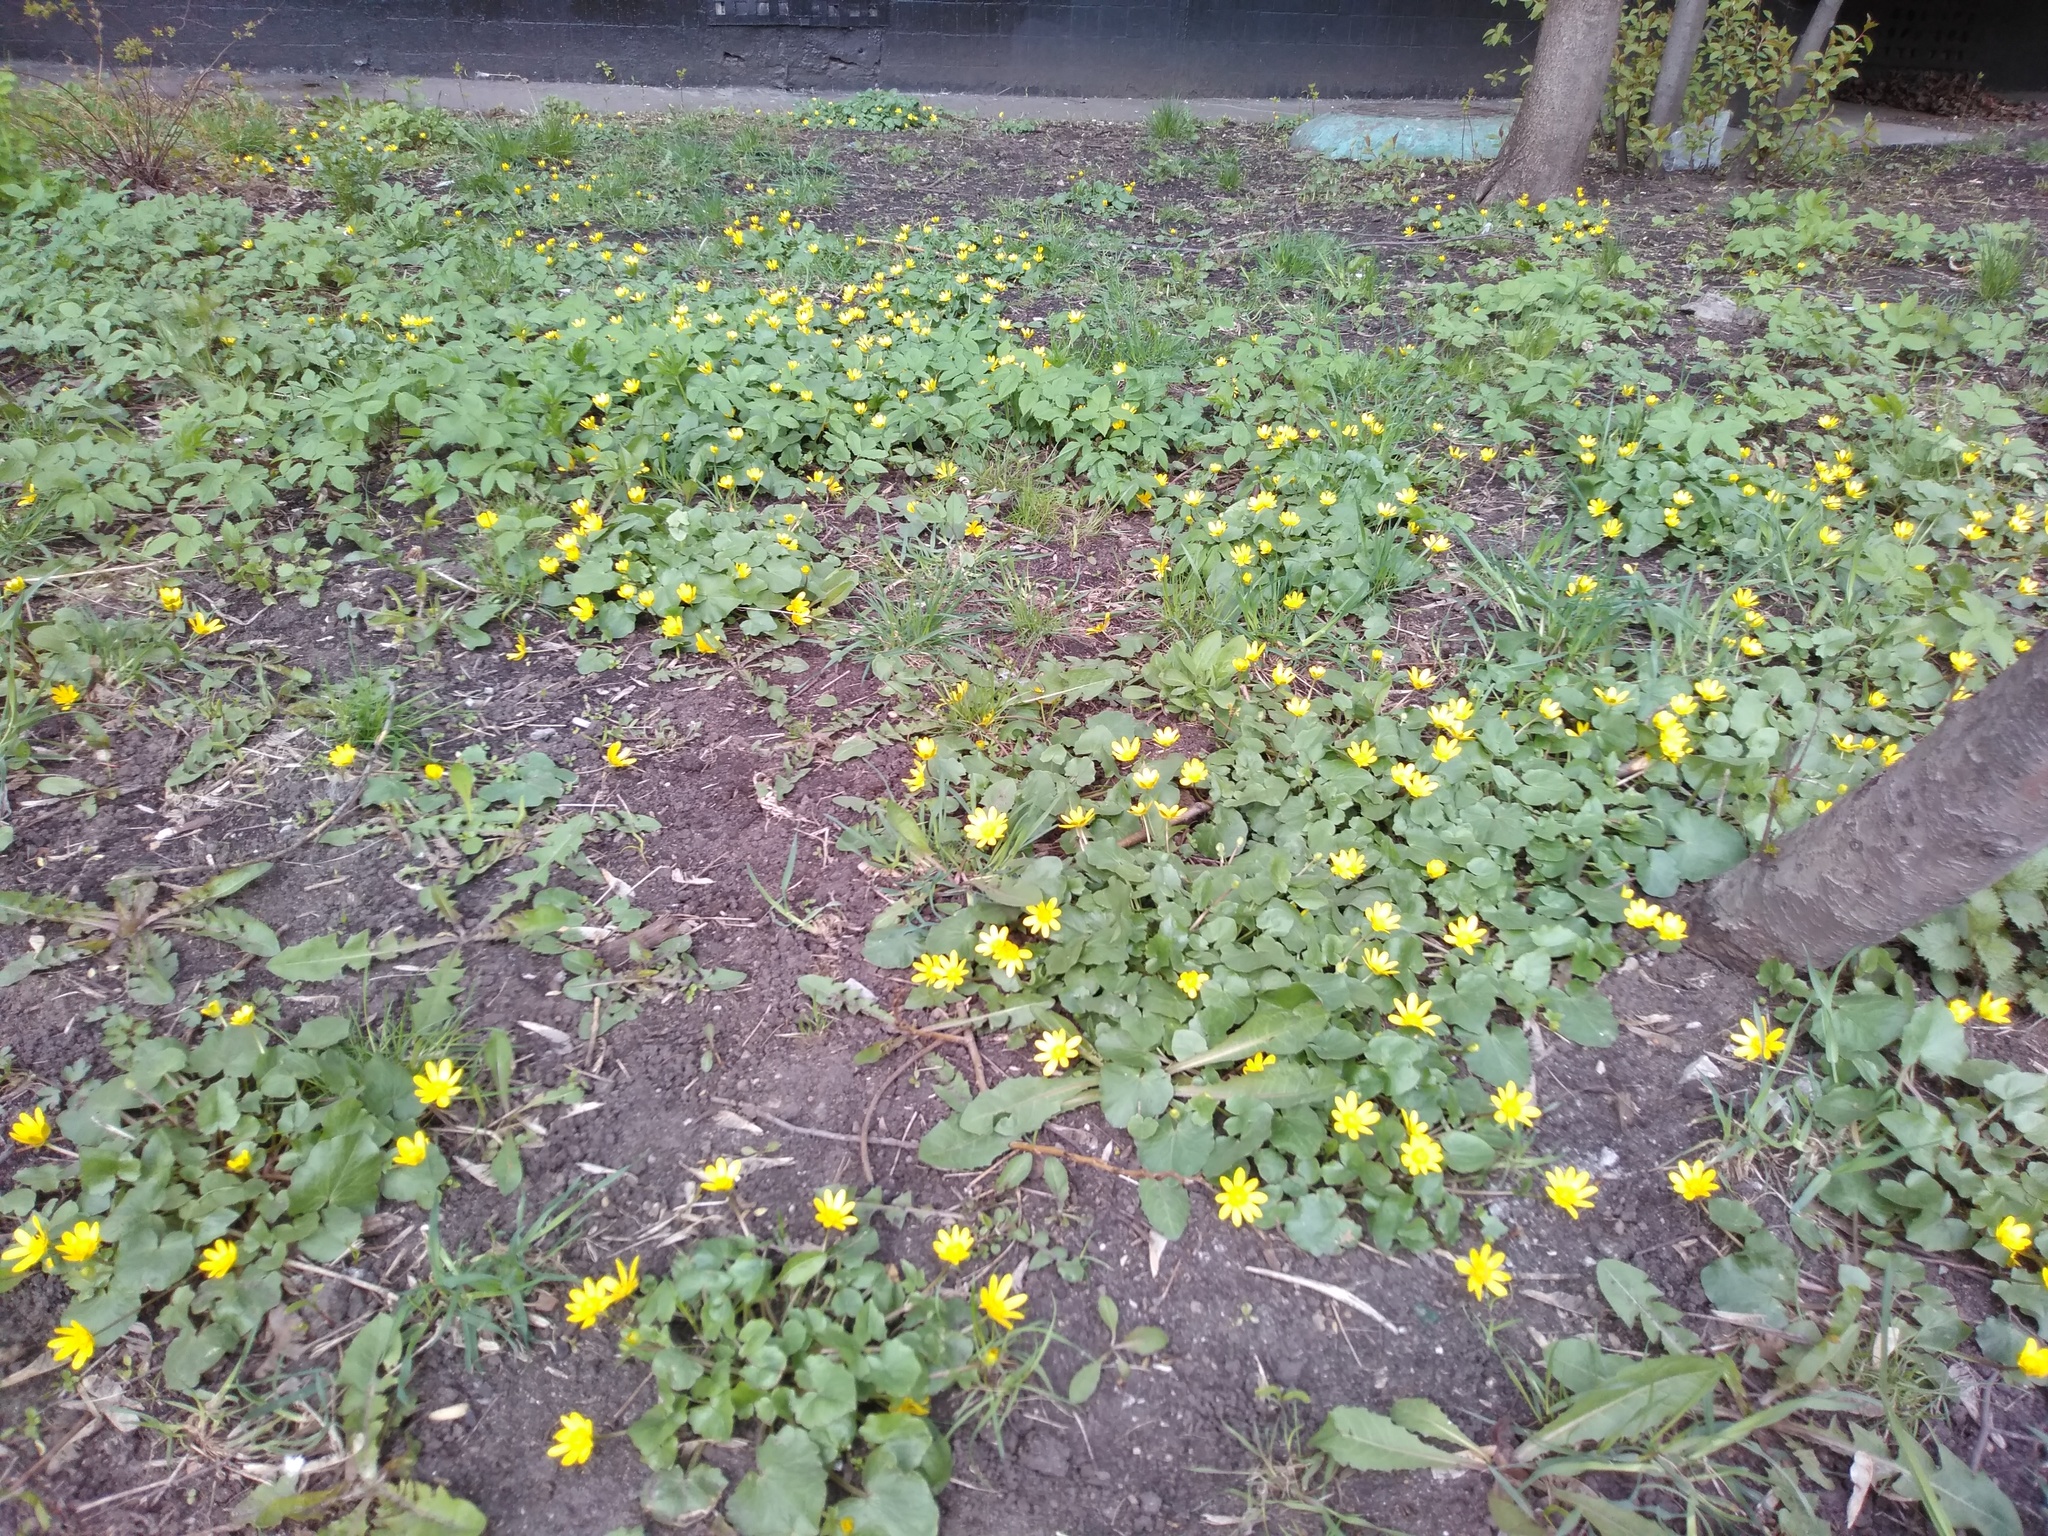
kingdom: Plantae
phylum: Tracheophyta
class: Magnoliopsida
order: Ranunculales
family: Ranunculaceae
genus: Ficaria
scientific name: Ficaria verna
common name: Lesser celandine
